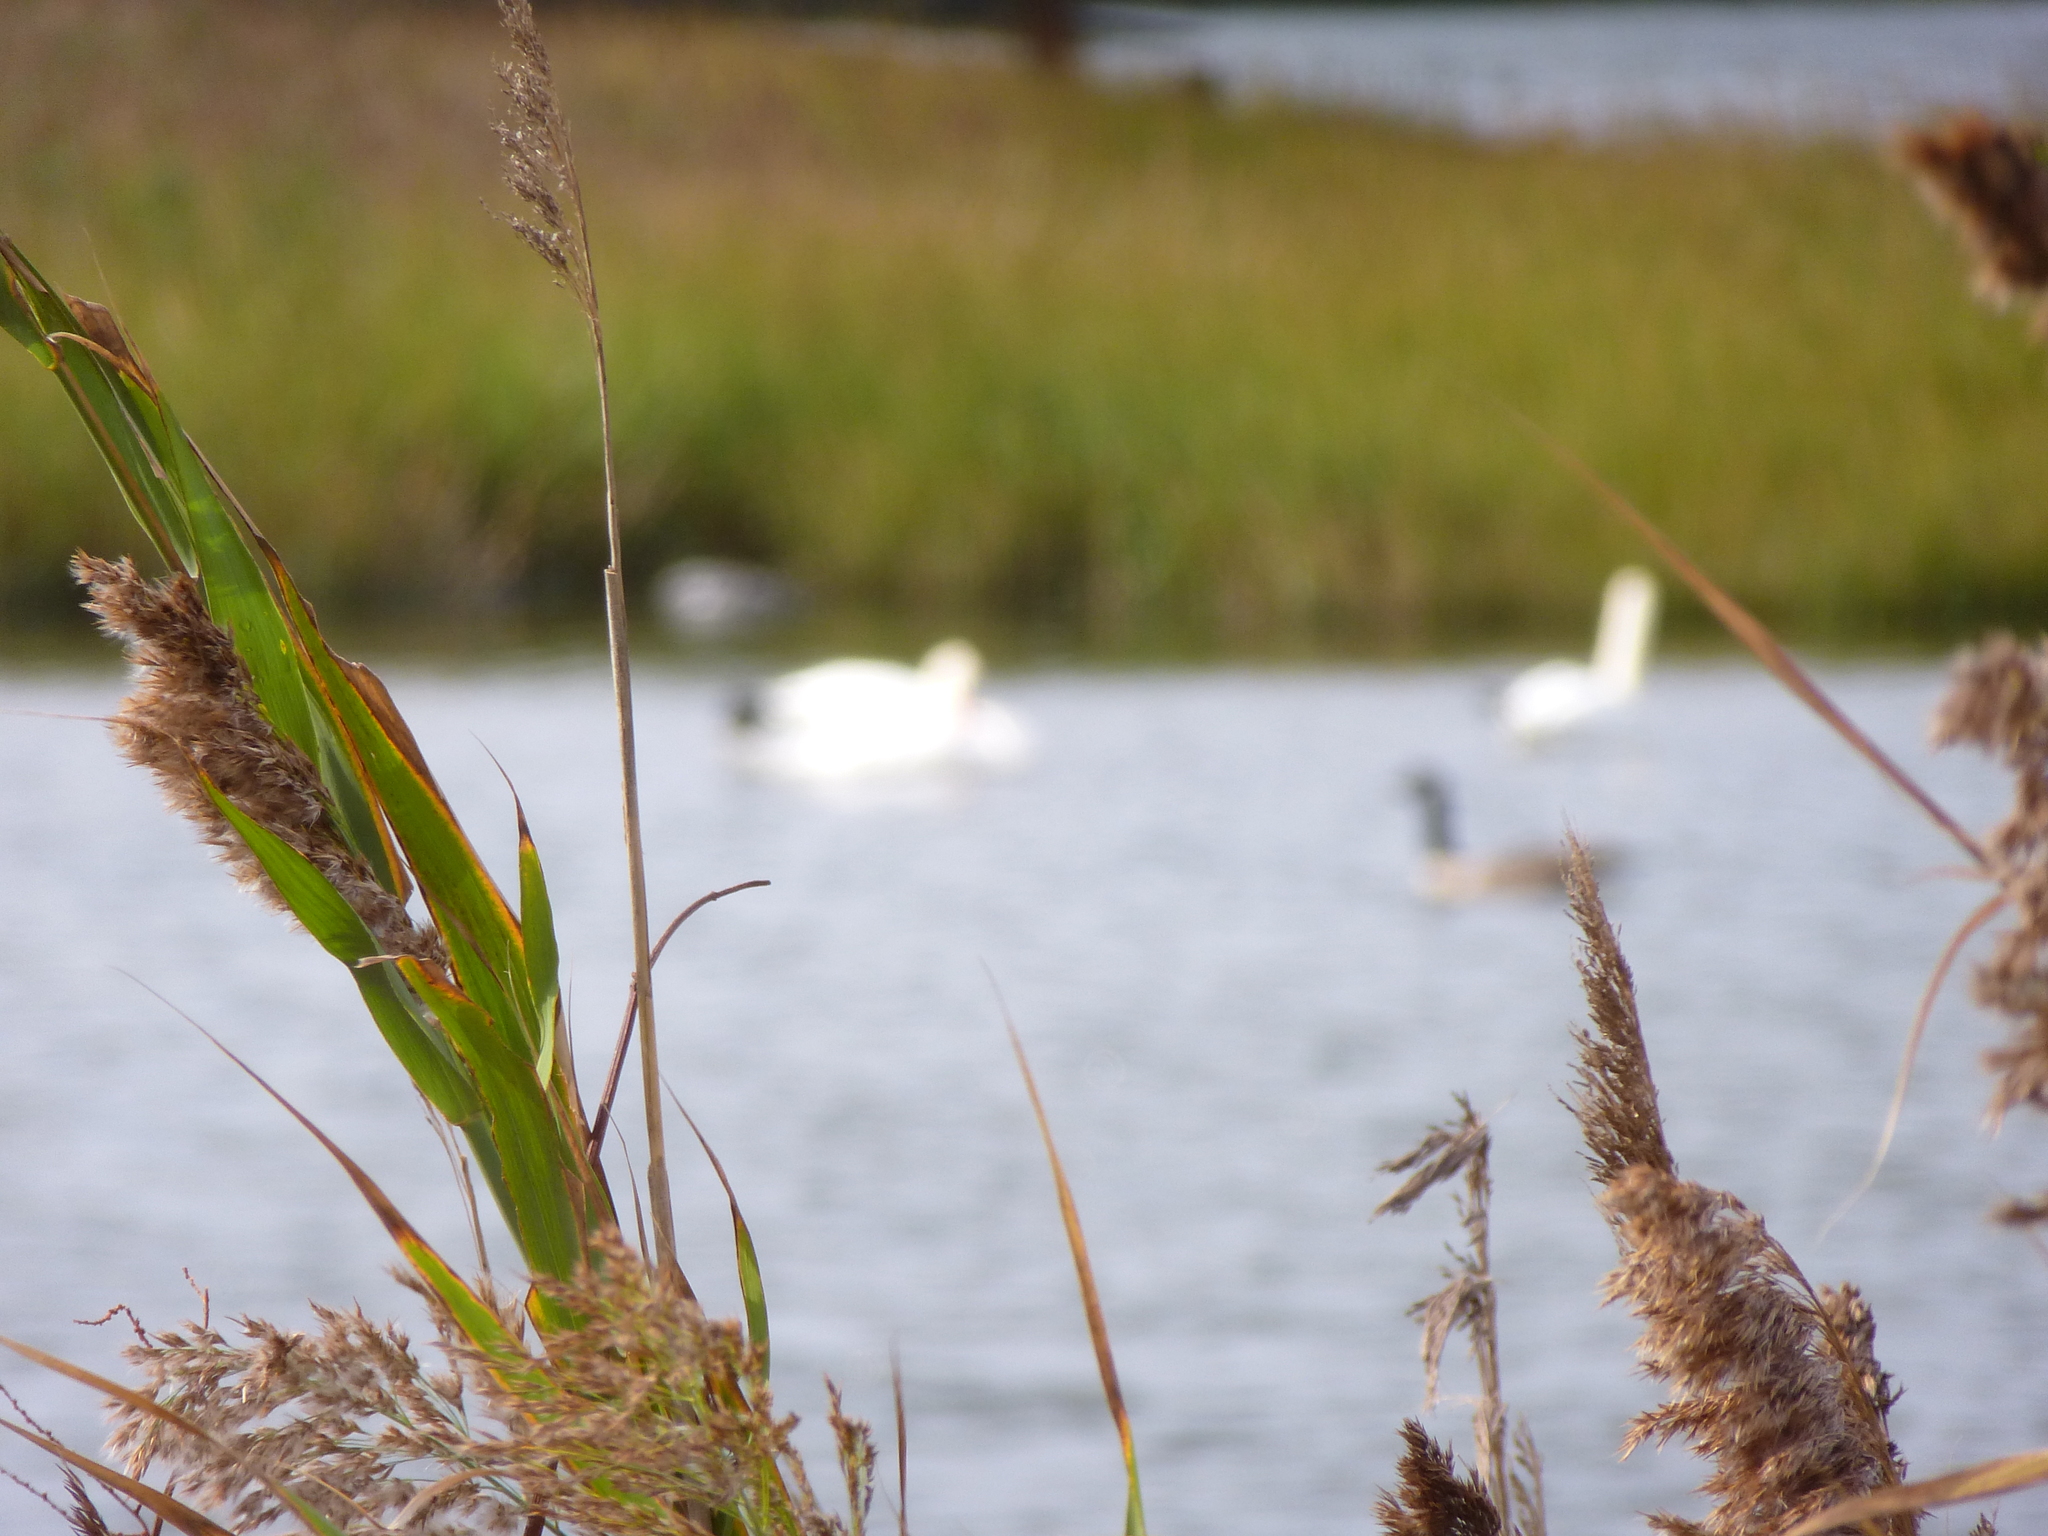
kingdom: Plantae
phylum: Tracheophyta
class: Liliopsida
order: Poales
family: Poaceae
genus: Phragmites
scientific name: Phragmites australis
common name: Common reed
